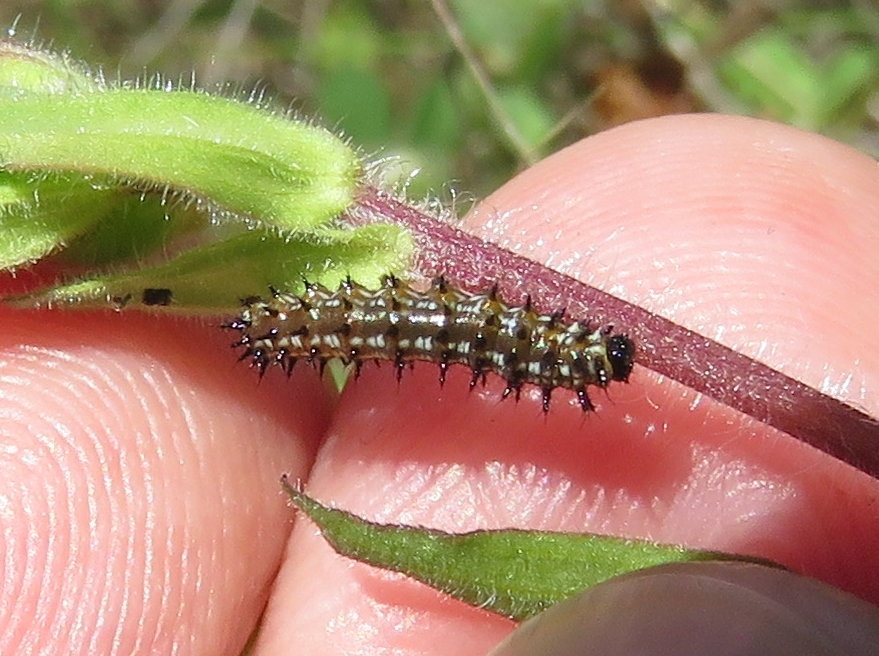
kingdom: Animalia
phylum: Arthropoda
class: Insecta
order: Lepidoptera
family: Nymphalidae
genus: Euptoieta
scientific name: Euptoieta claudia
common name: Variegated fritillary
